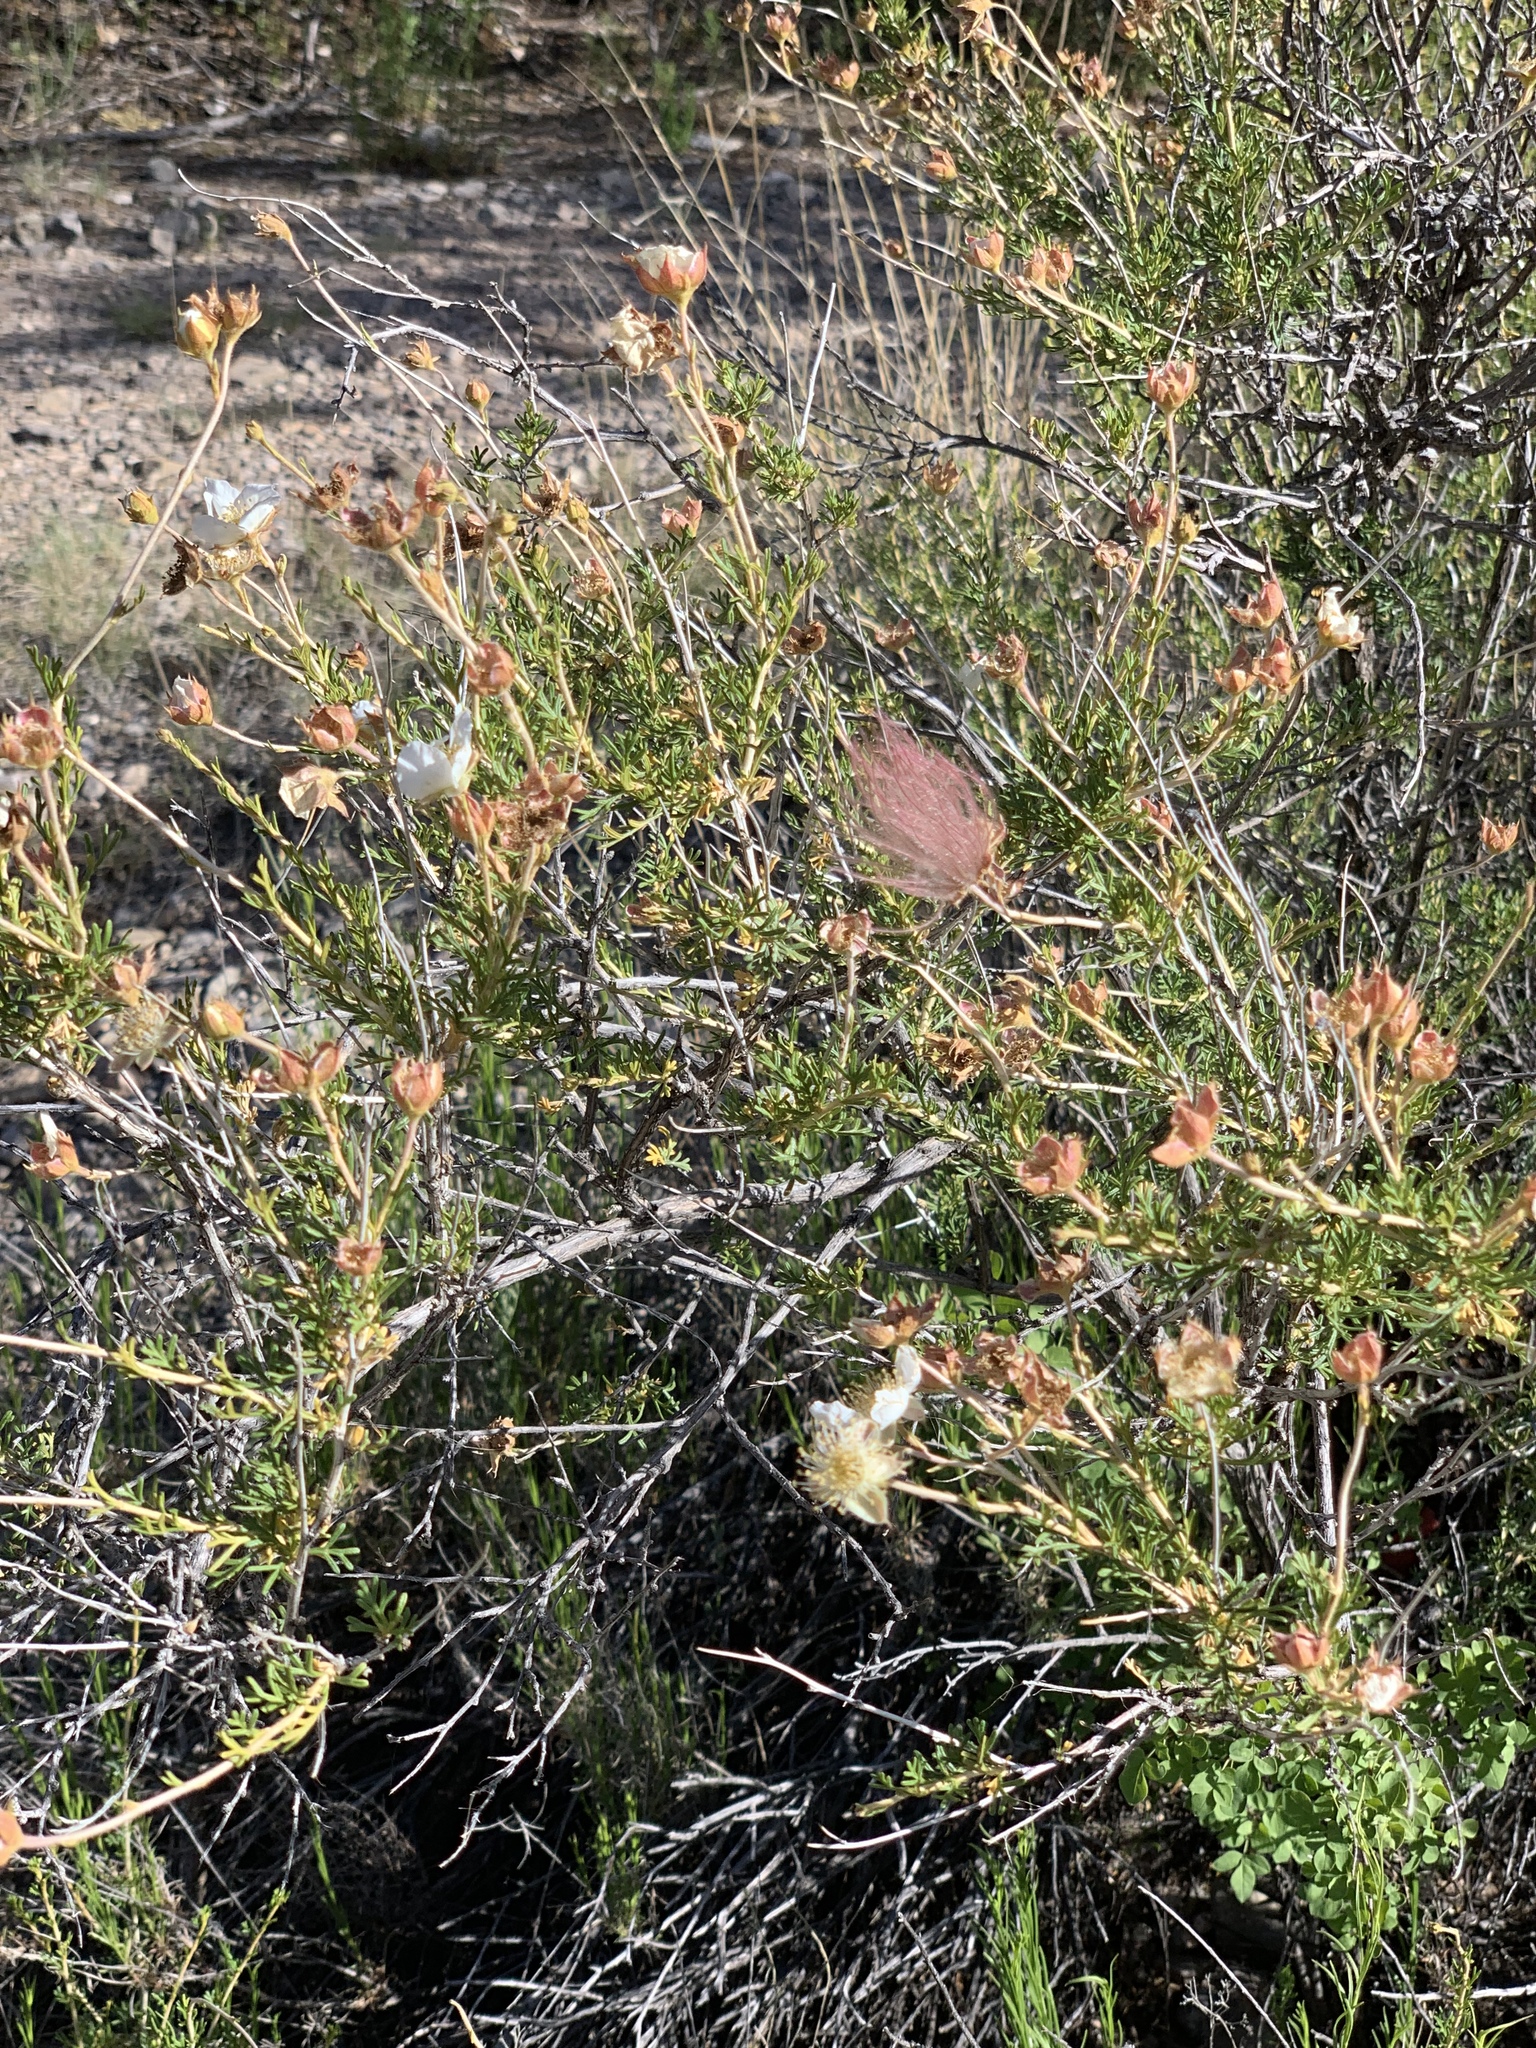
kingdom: Plantae
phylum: Tracheophyta
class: Magnoliopsida
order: Rosales
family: Rosaceae
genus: Fallugia
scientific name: Fallugia paradoxa
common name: Apache-plume
